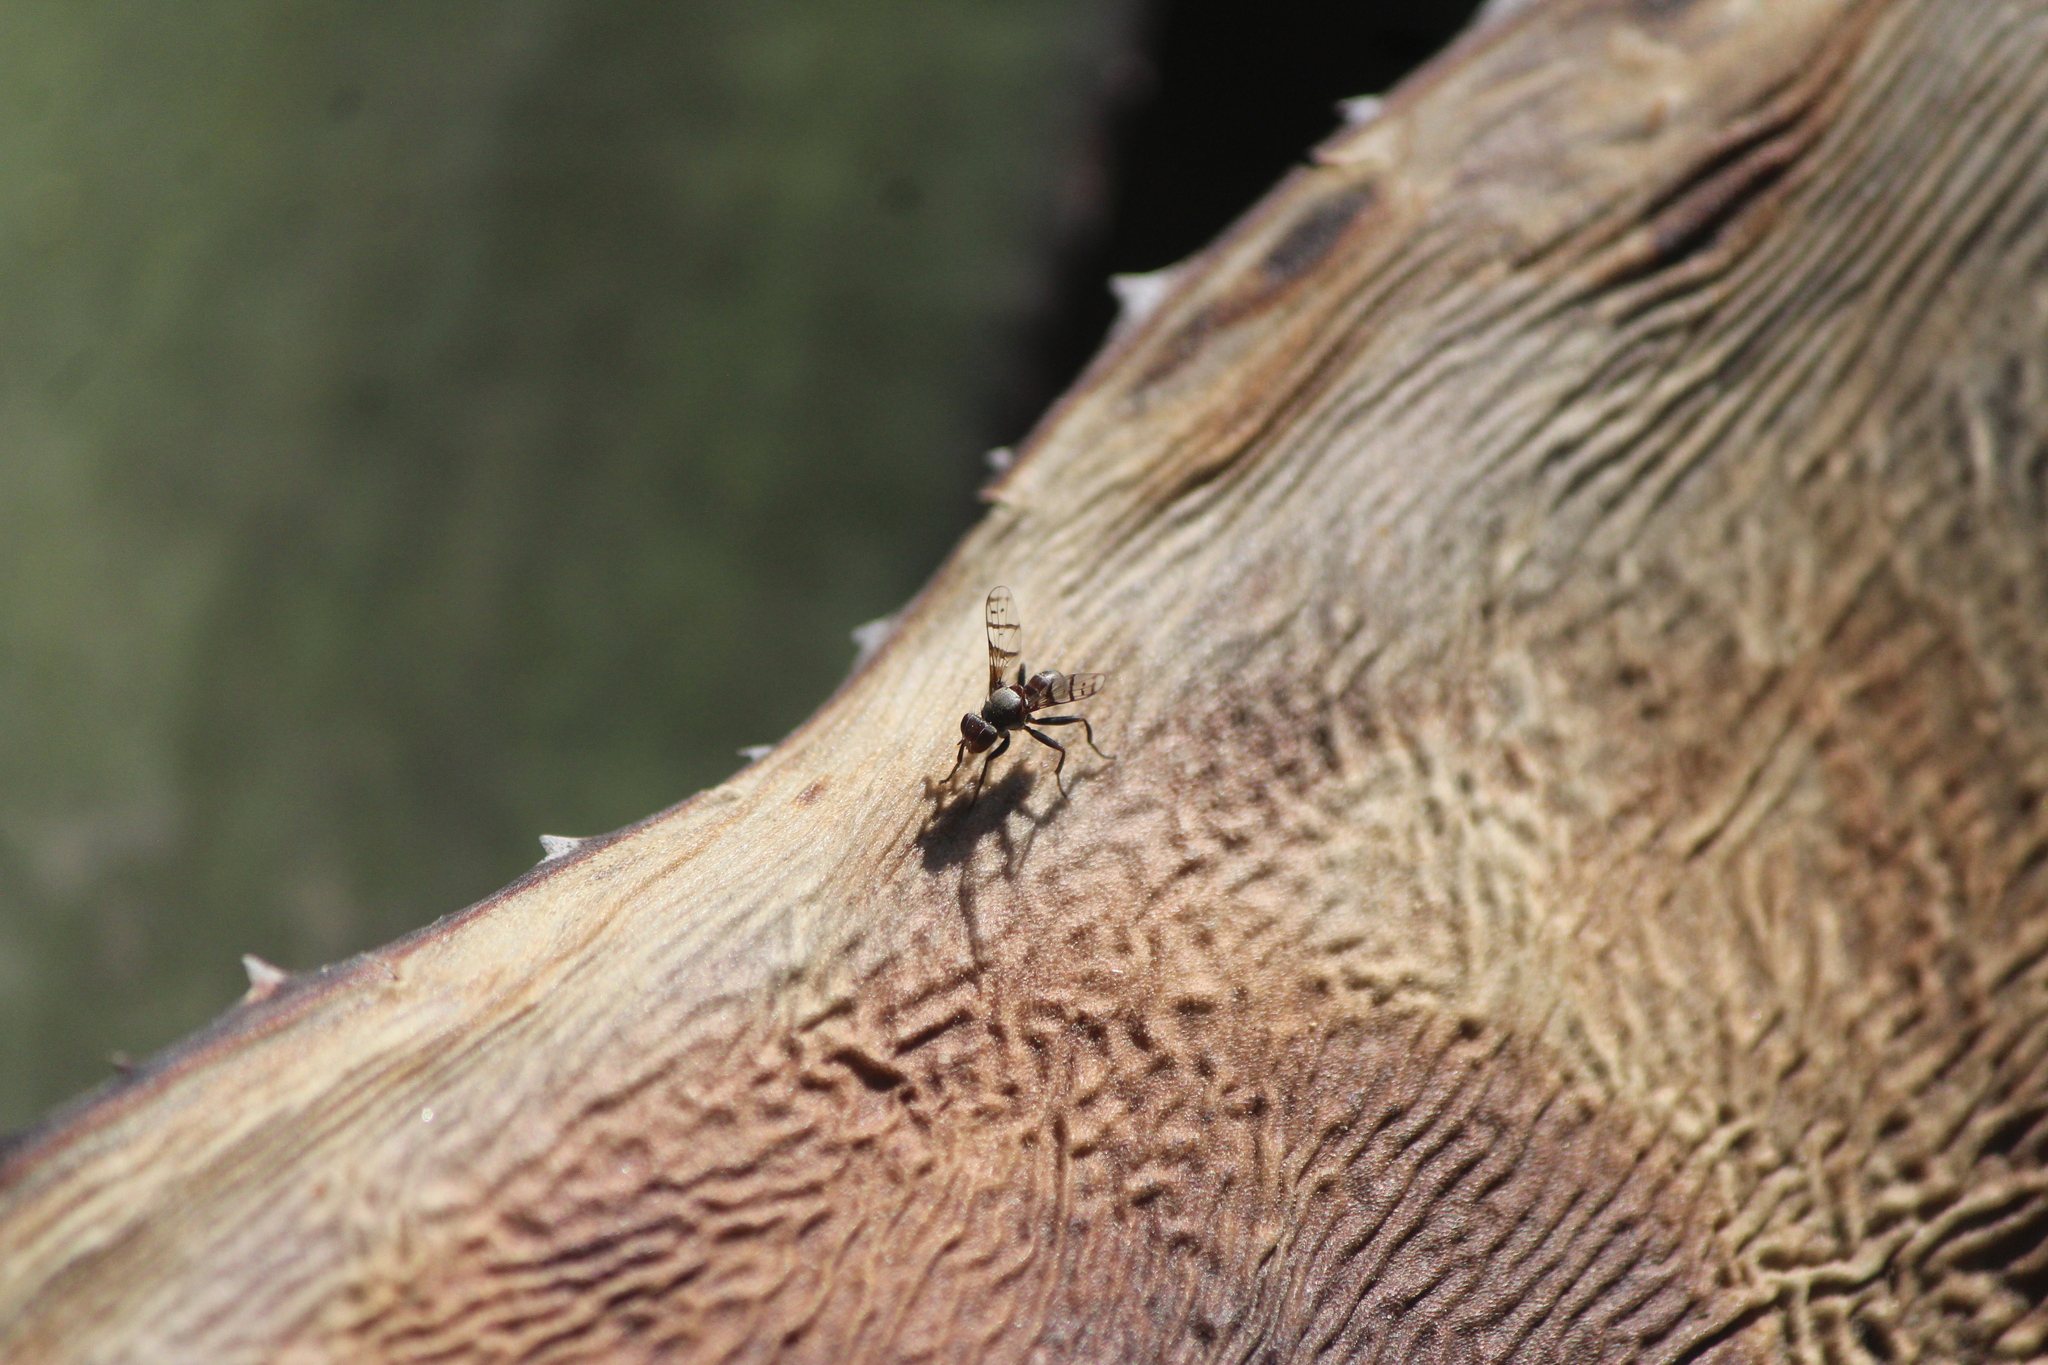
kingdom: Animalia
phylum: Arthropoda
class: Insecta
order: Diptera
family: Richardiidae
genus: Automola
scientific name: Automola rufa
